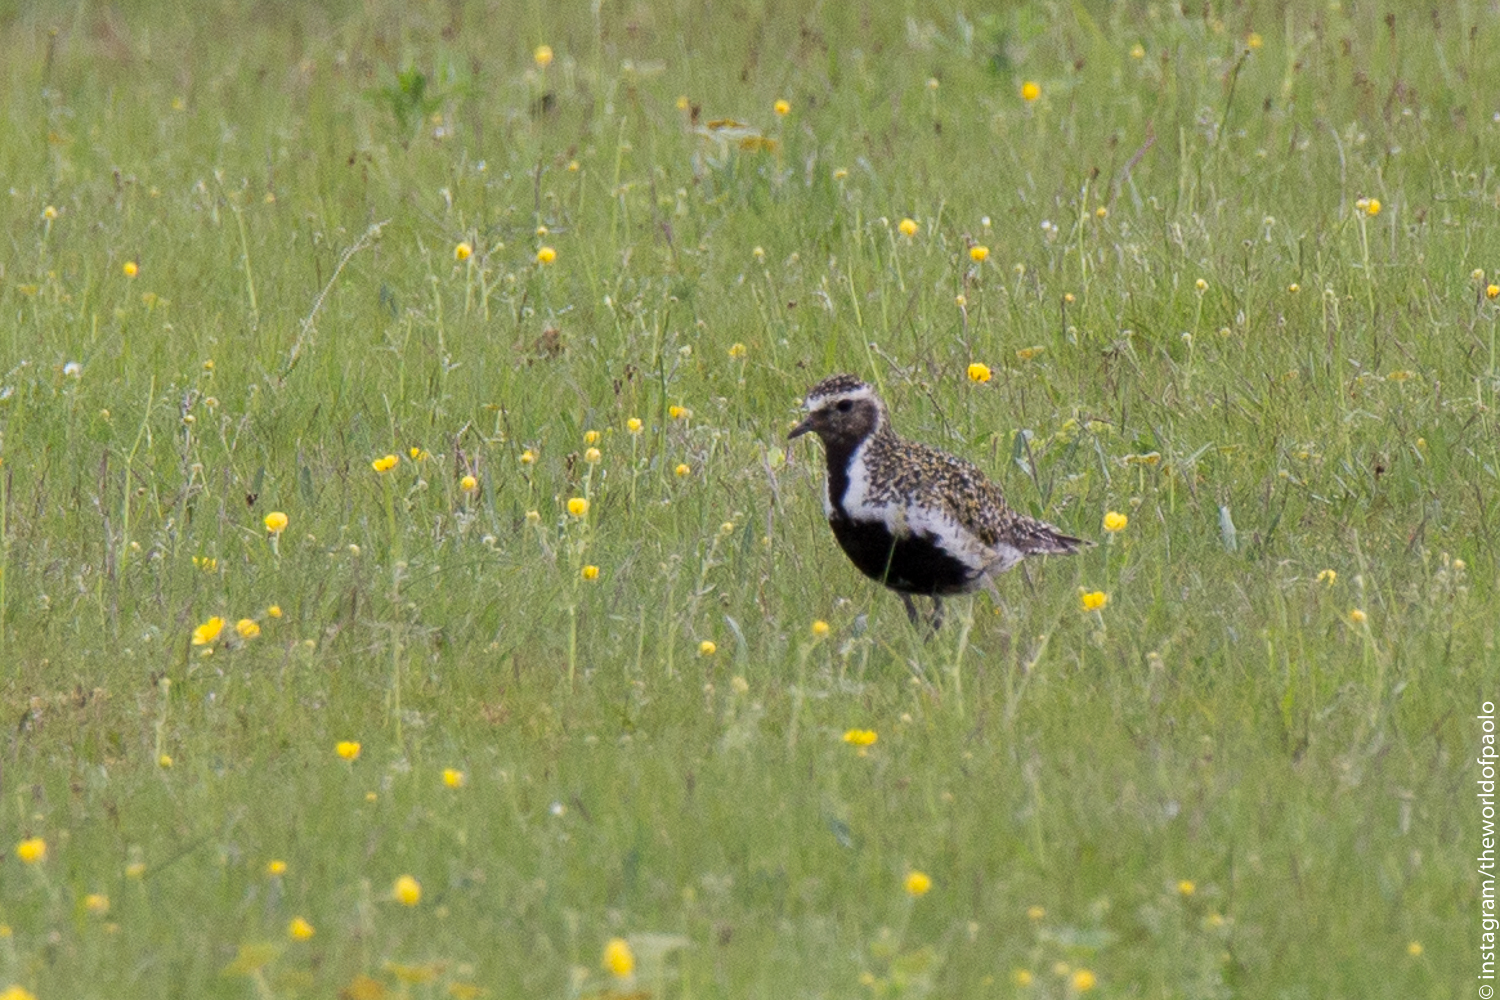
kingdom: Animalia
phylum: Chordata
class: Aves
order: Charadriiformes
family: Charadriidae
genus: Pluvialis
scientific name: Pluvialis apricaria
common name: European golden plover
